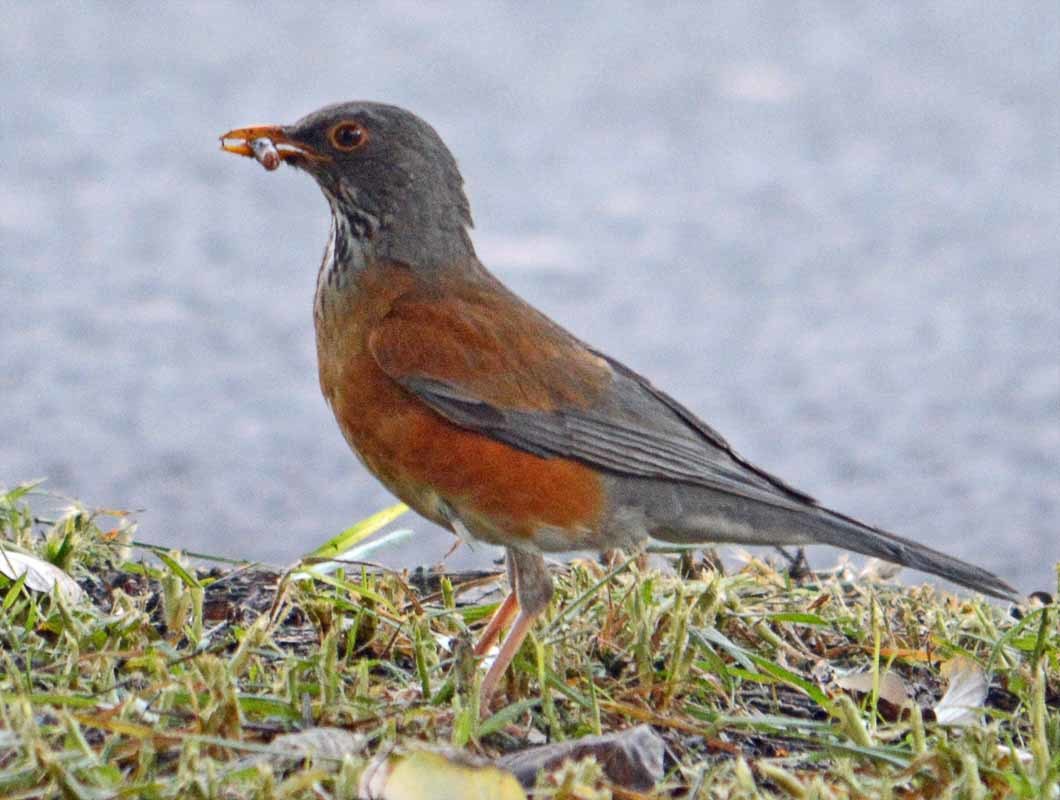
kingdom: Animalia
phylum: Chordata
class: Aves
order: Passeriformes
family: Turdidae
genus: Turdus
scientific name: Turdus rufopalliatus
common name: Rufous-backed robin
